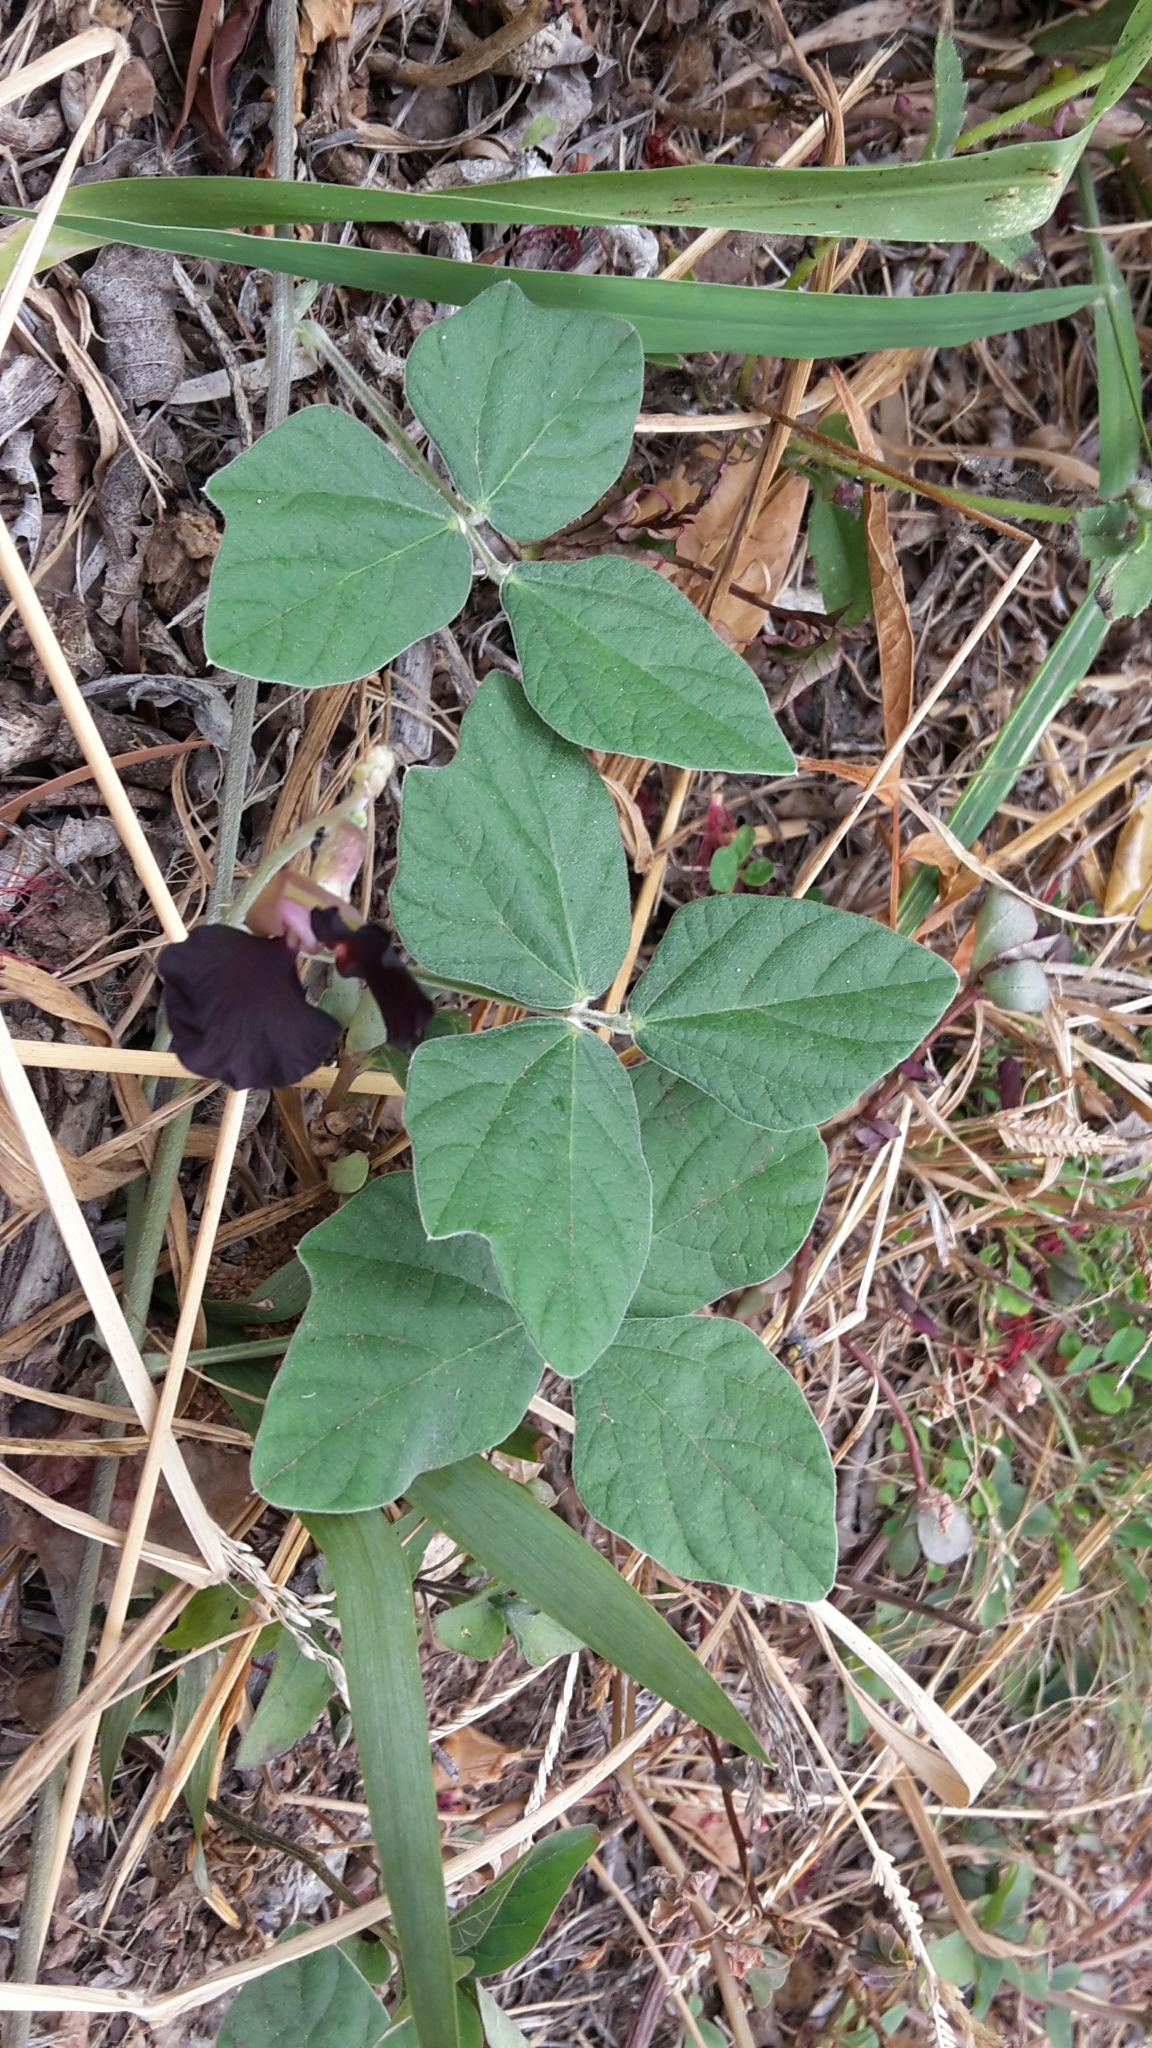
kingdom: Plantae
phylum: Tracheophyta
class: Magnoliopsida
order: Fabales
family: Fabaceae
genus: Macroptilium
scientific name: Macroptilium atropurpureum
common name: Purple bushbean
